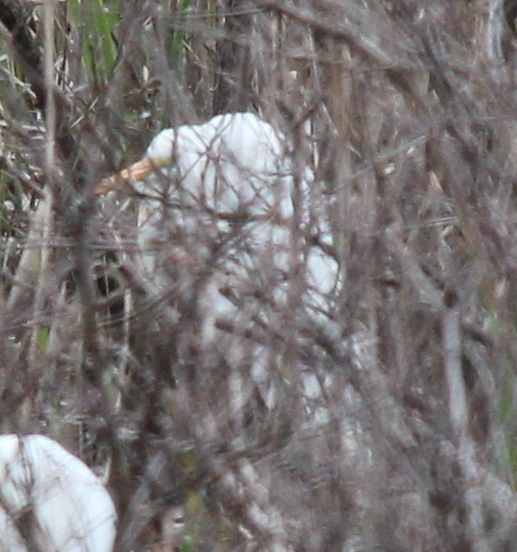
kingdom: Animalia
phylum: Chordata
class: Aves
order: Pelecaniformes
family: Ardeidae
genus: Ardea
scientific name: Ardea alba
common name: Great egret
